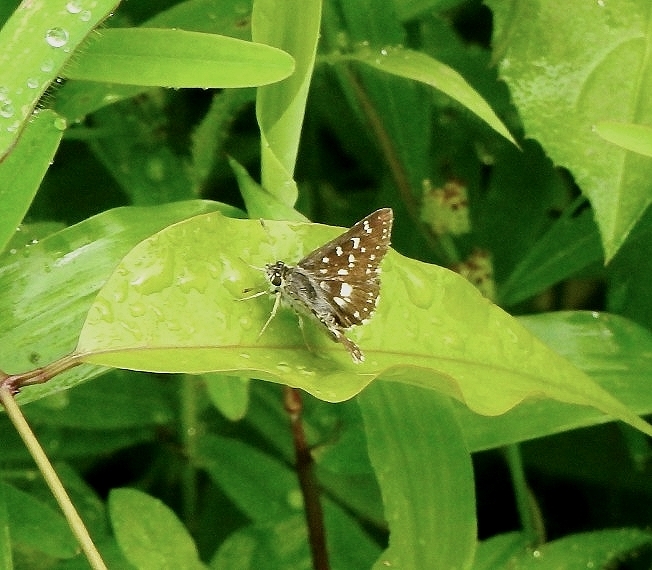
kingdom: Animalia
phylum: Arthropoda
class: Insecta
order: Lepidoptera
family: Hesperiidae
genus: Spialia
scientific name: Spialia galba
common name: Indian skipper
